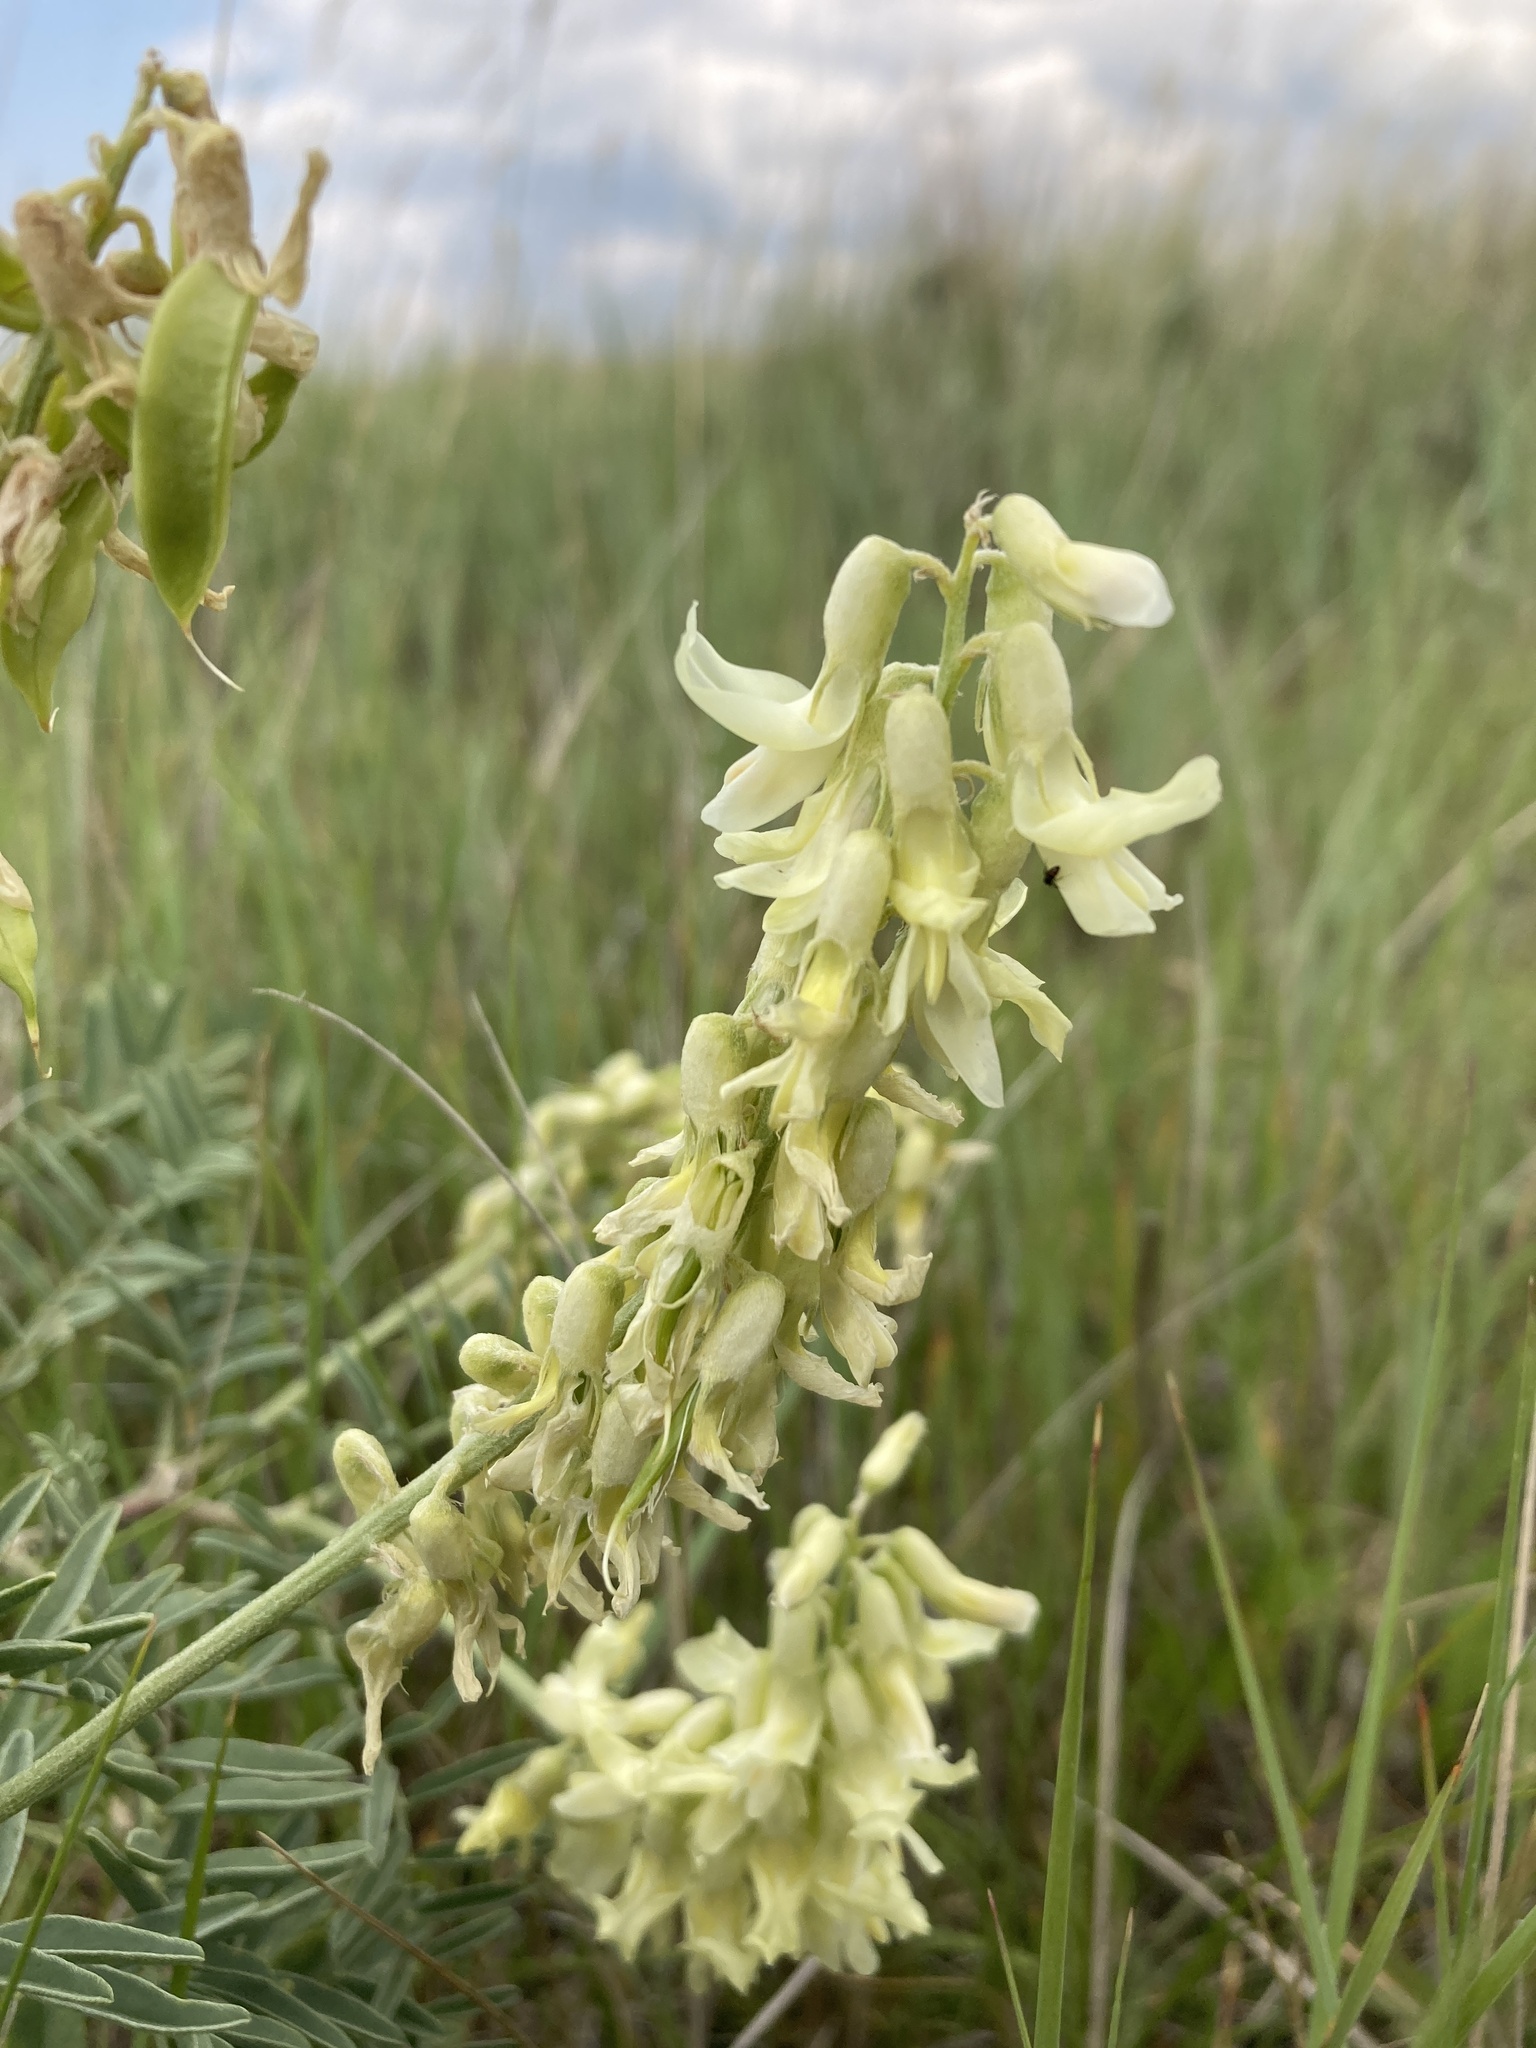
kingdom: Plantae
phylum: Tracheophyta
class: Magnoliopsida
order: Fabales
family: Fabaceae
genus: Astragalus
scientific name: Astragalus racemosus
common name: Alkali milk-vetch
